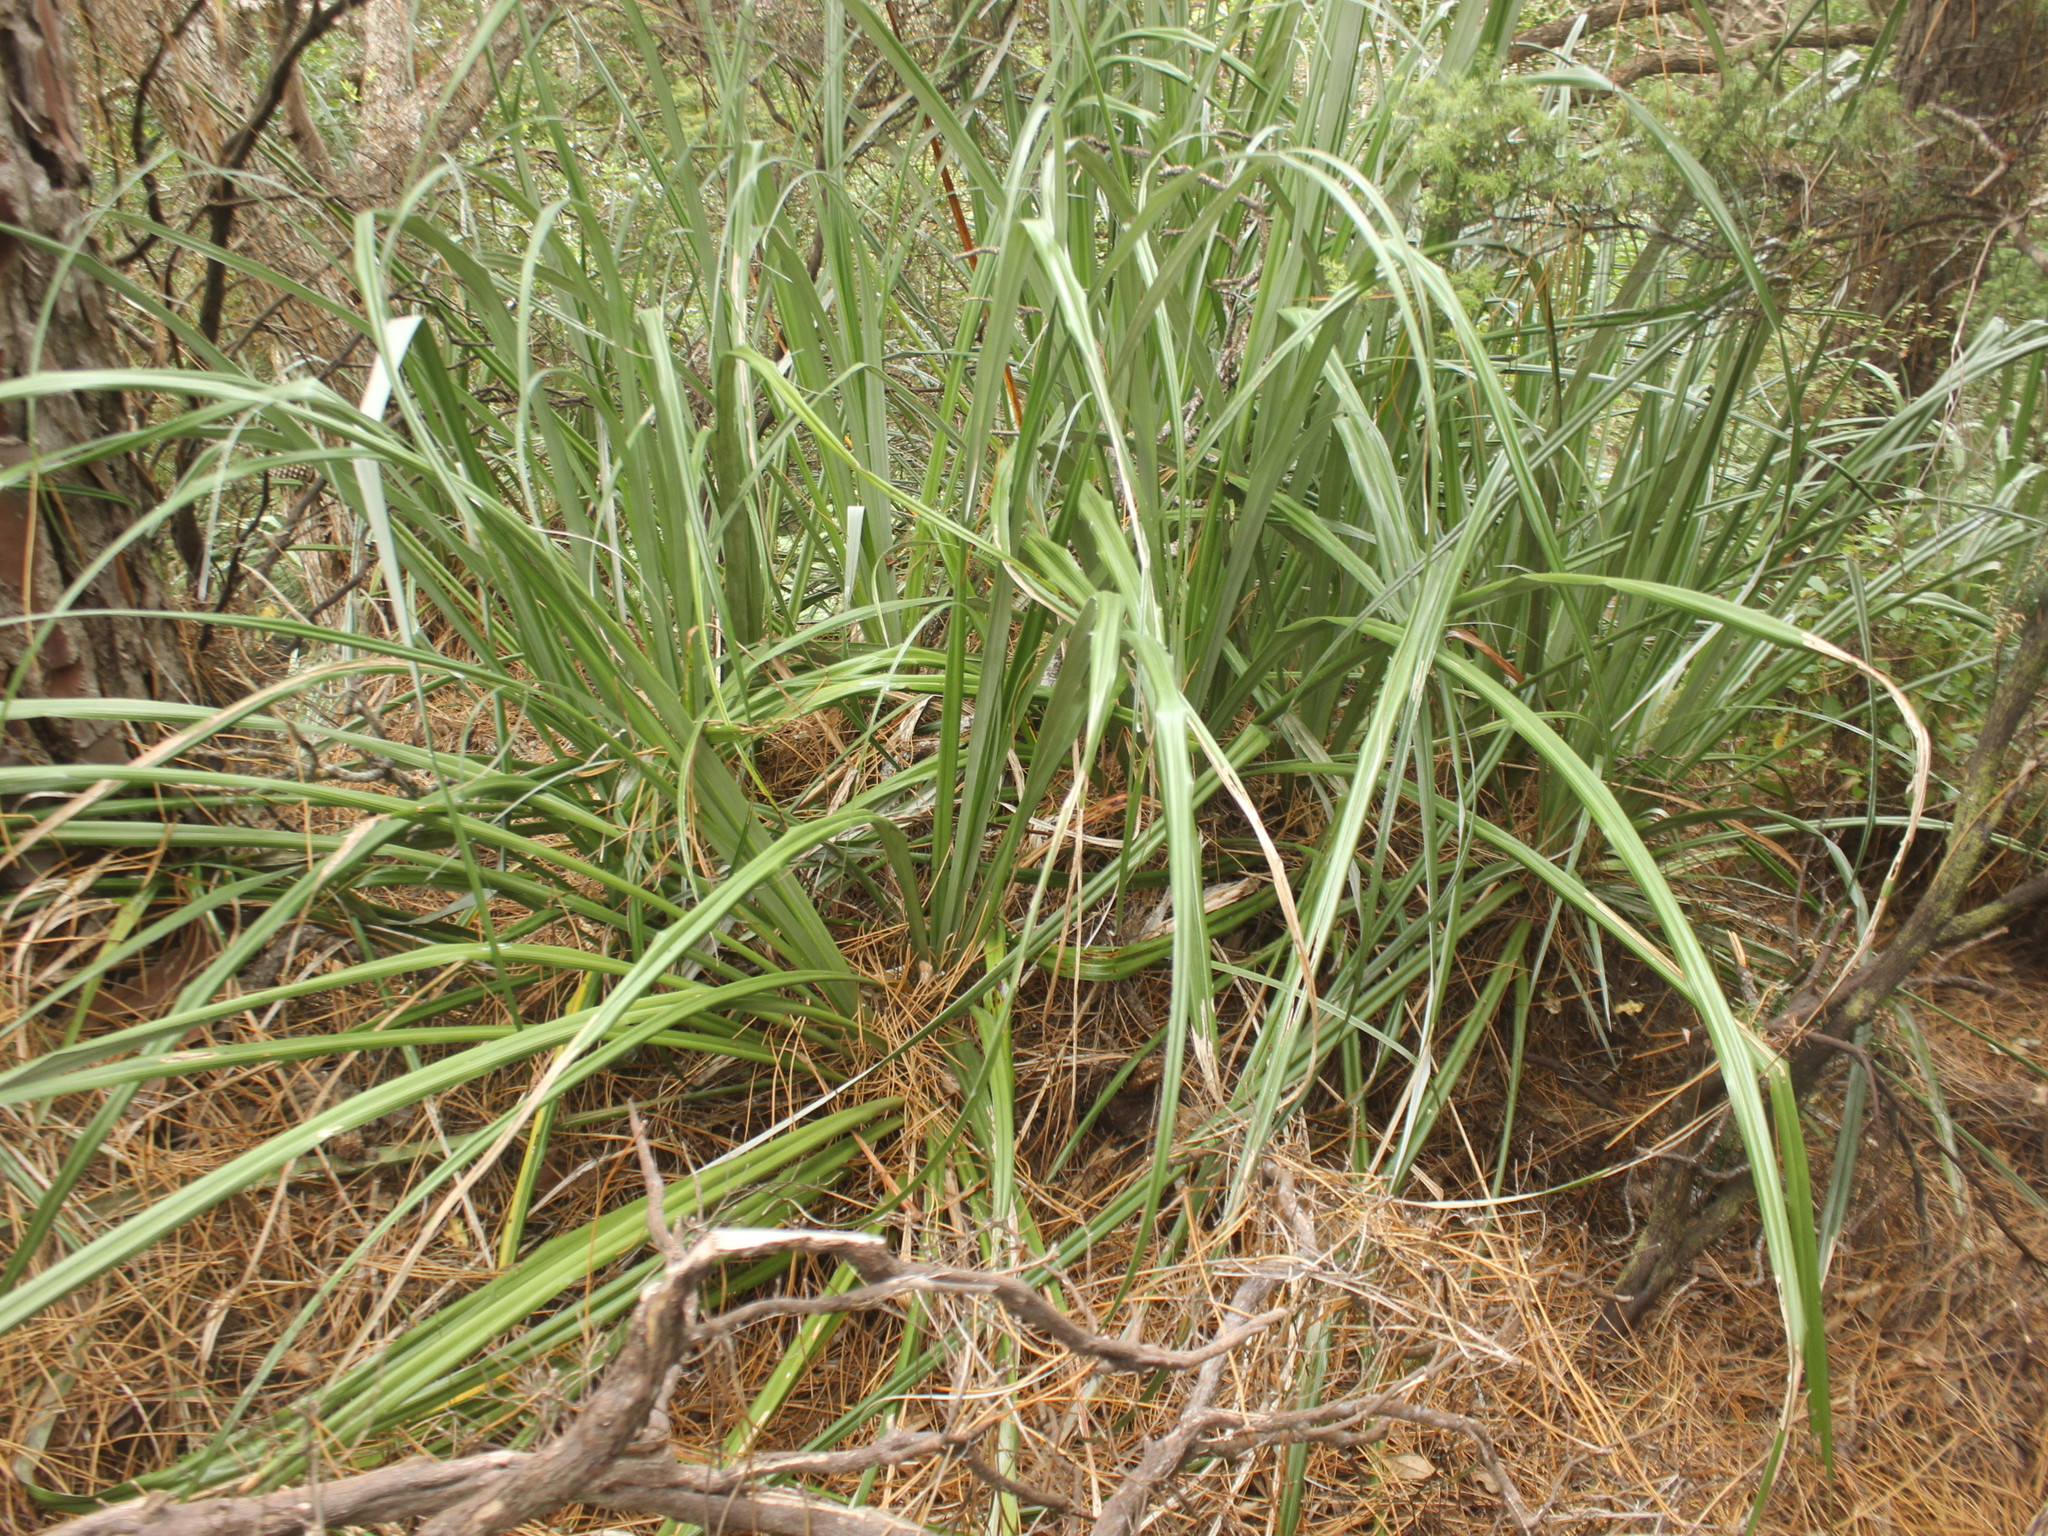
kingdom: Plantae
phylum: Tracheophyta
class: Liliopsida
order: Asparagales
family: Asteliaceae
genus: Astelia
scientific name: Astelia trinervia
